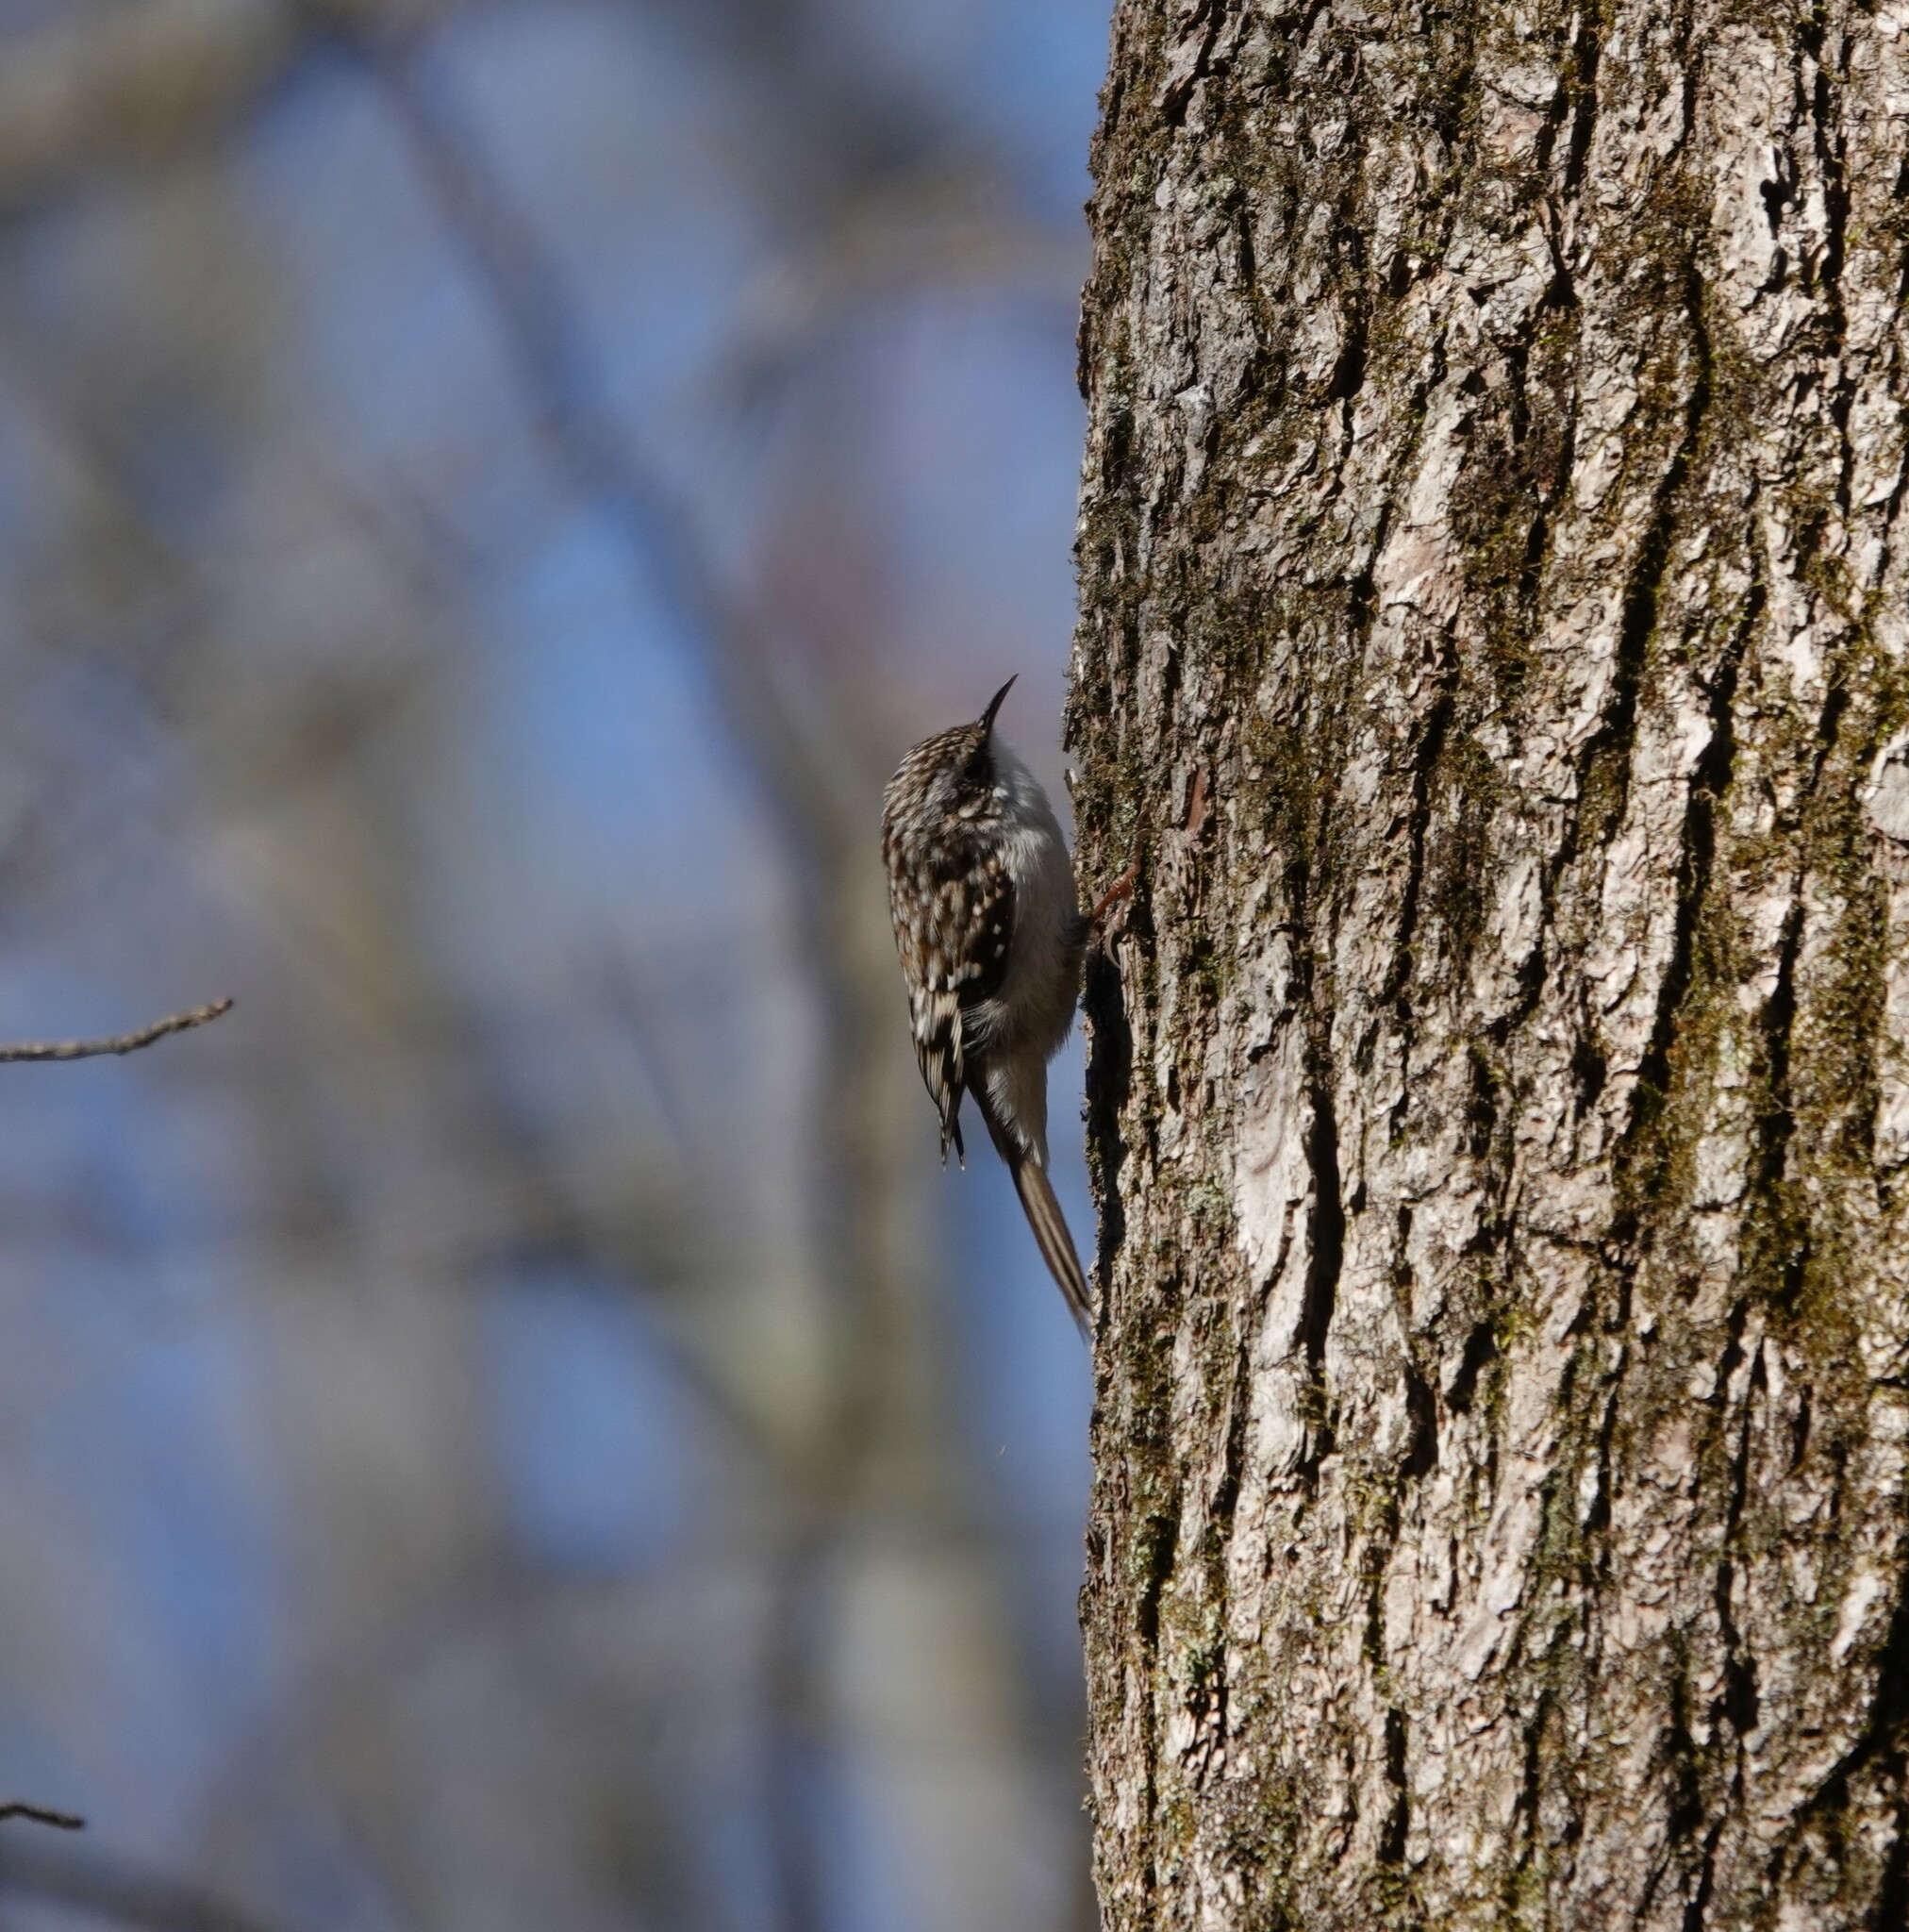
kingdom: Animalia
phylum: Chordata
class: Aves
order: Passeriformes
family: Certhiidae
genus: Certhia
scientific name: Certhia americana
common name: Brown creeper
